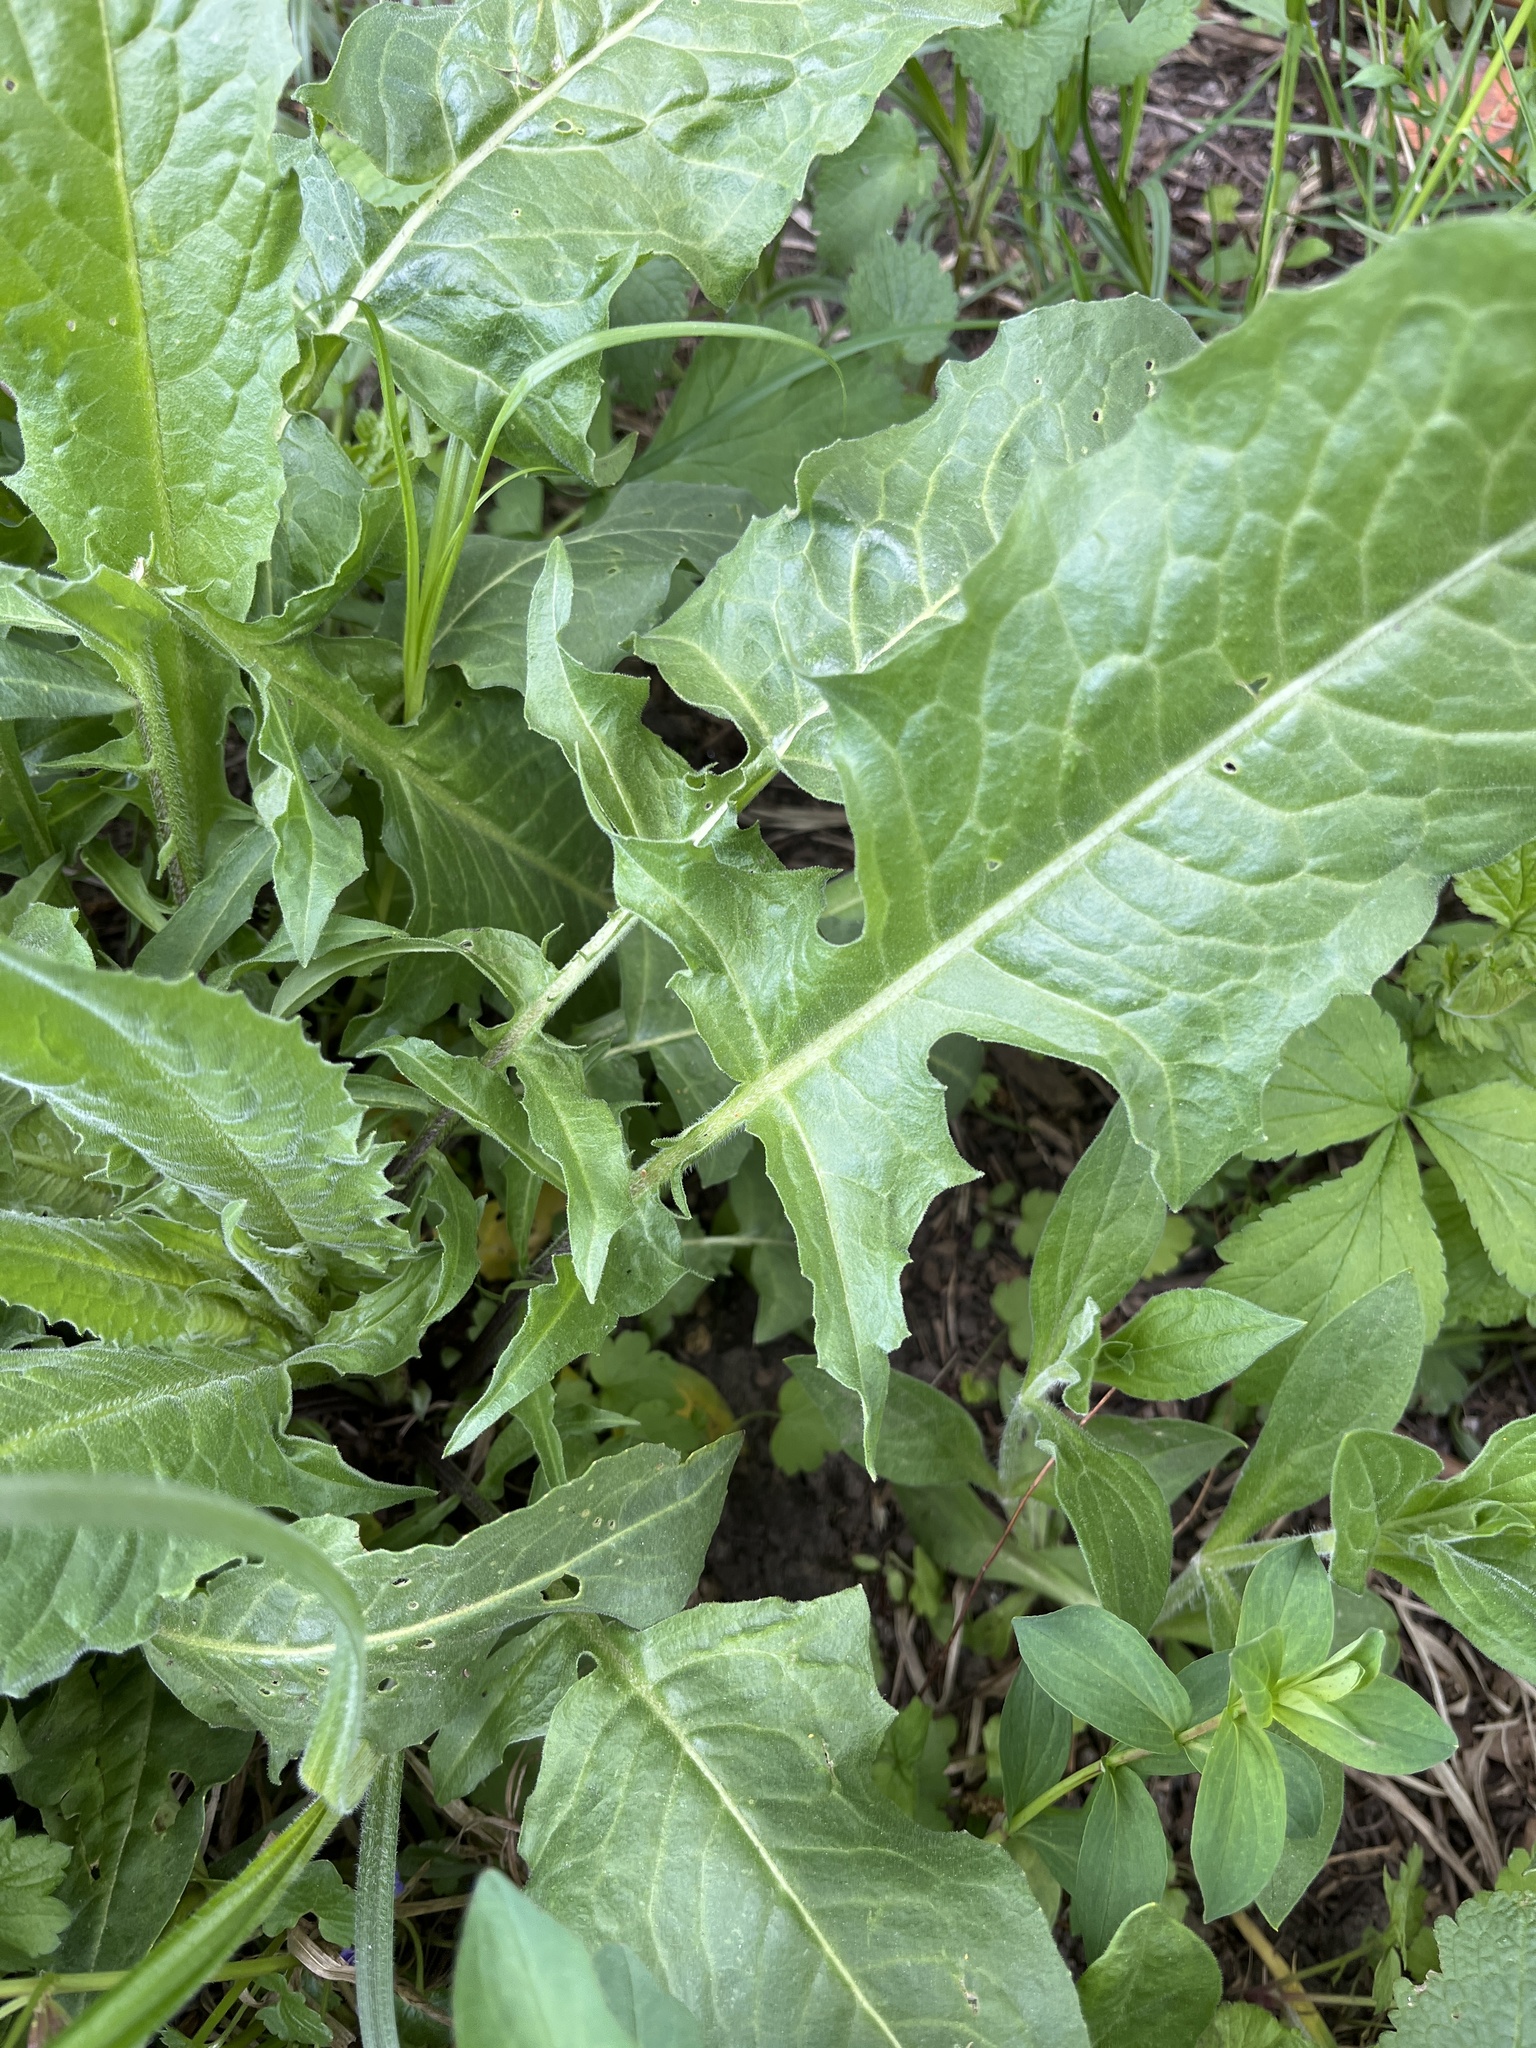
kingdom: Plantae
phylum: Tracheophyta
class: Magnoliopsida
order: Brassicales
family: Brassicaceae
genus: Bunias
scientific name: Bunias orientalis
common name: Warty-cabbage
